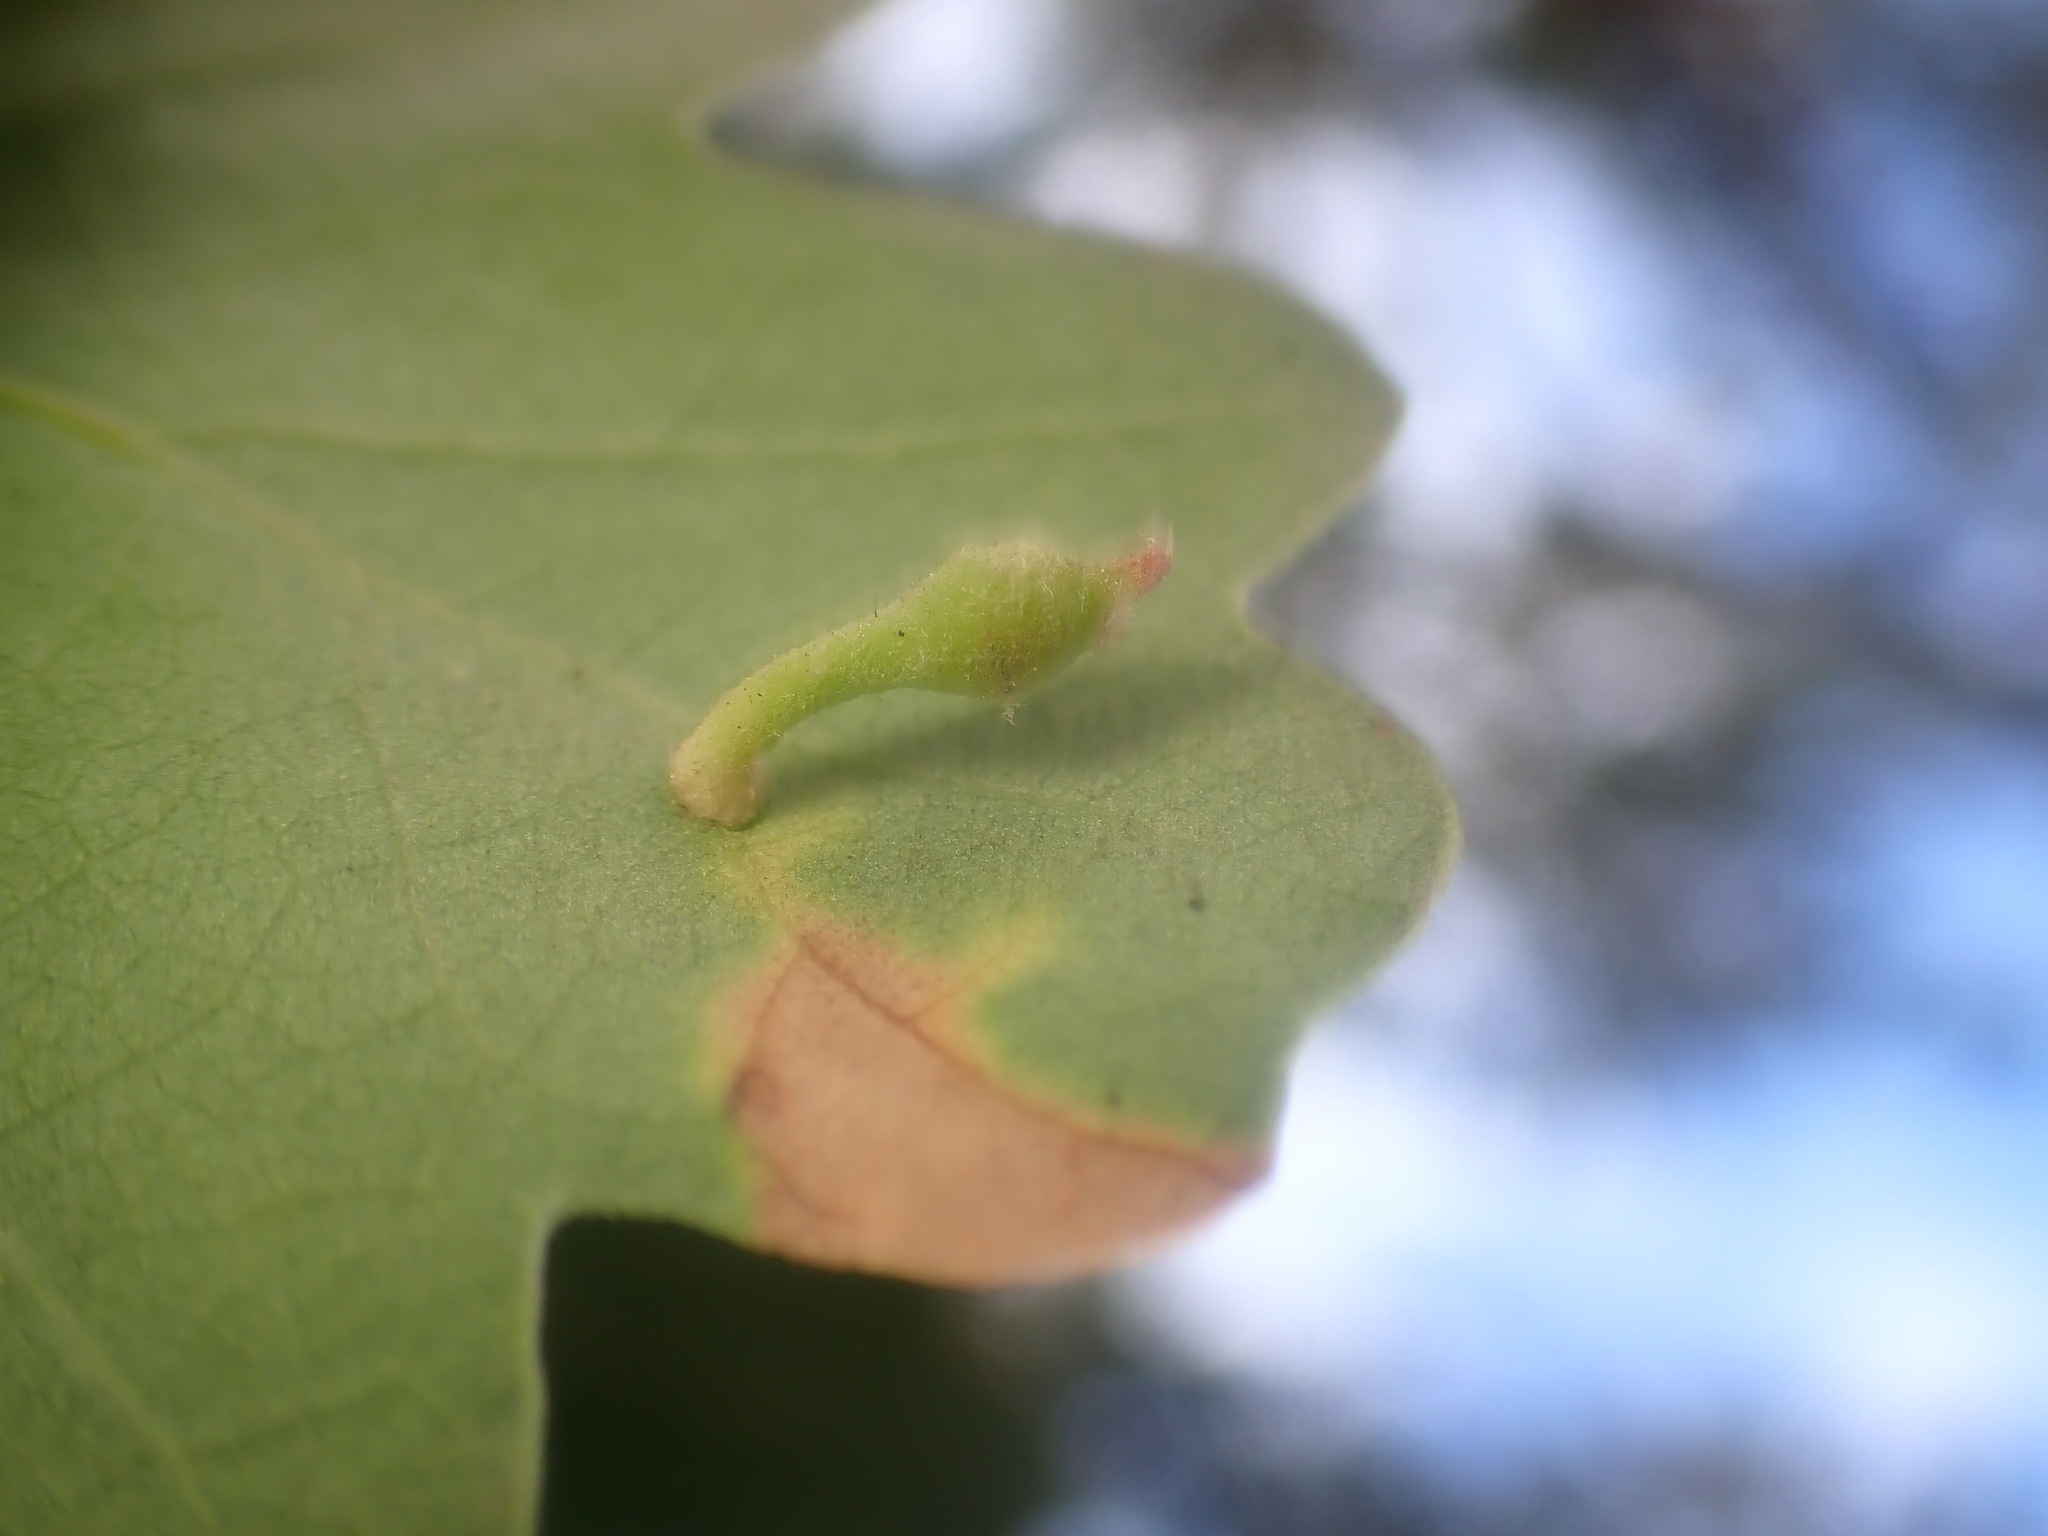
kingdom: Animalia
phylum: Arthropoda
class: Insecta
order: Hymenoptera
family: Cynipidae
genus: Atrusca
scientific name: Atrusca
